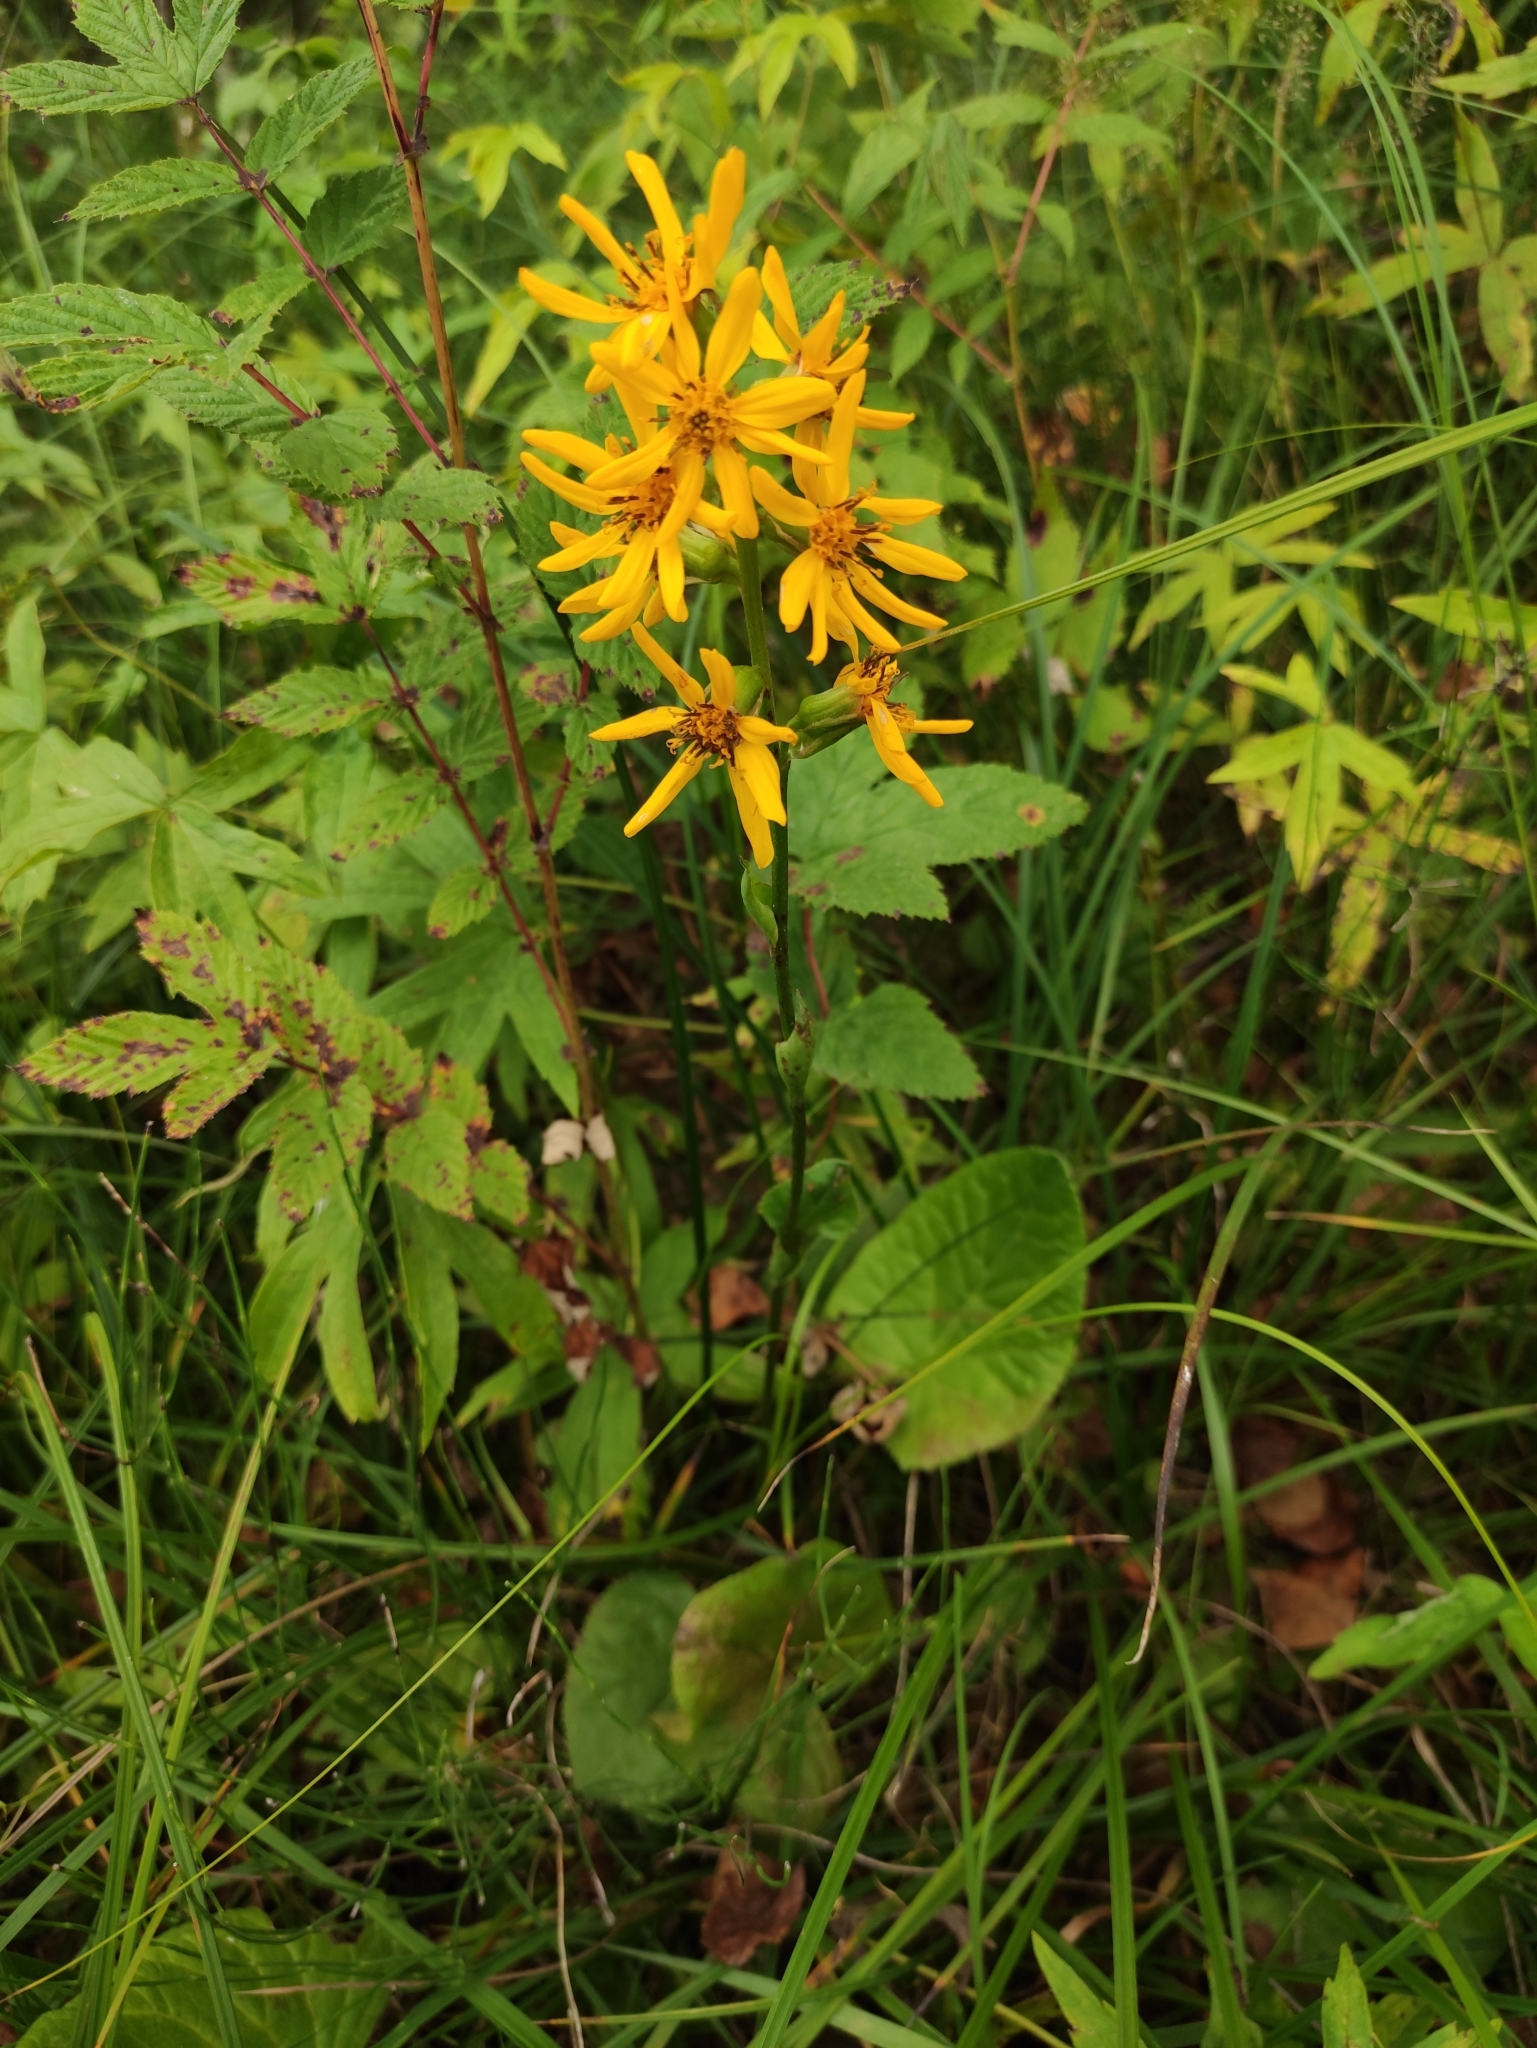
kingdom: Plantae
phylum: Tracheophyta
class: Magnoliopsida
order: Asterales
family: Asteraceae
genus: Ligularia
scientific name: Ligularia sibirica
